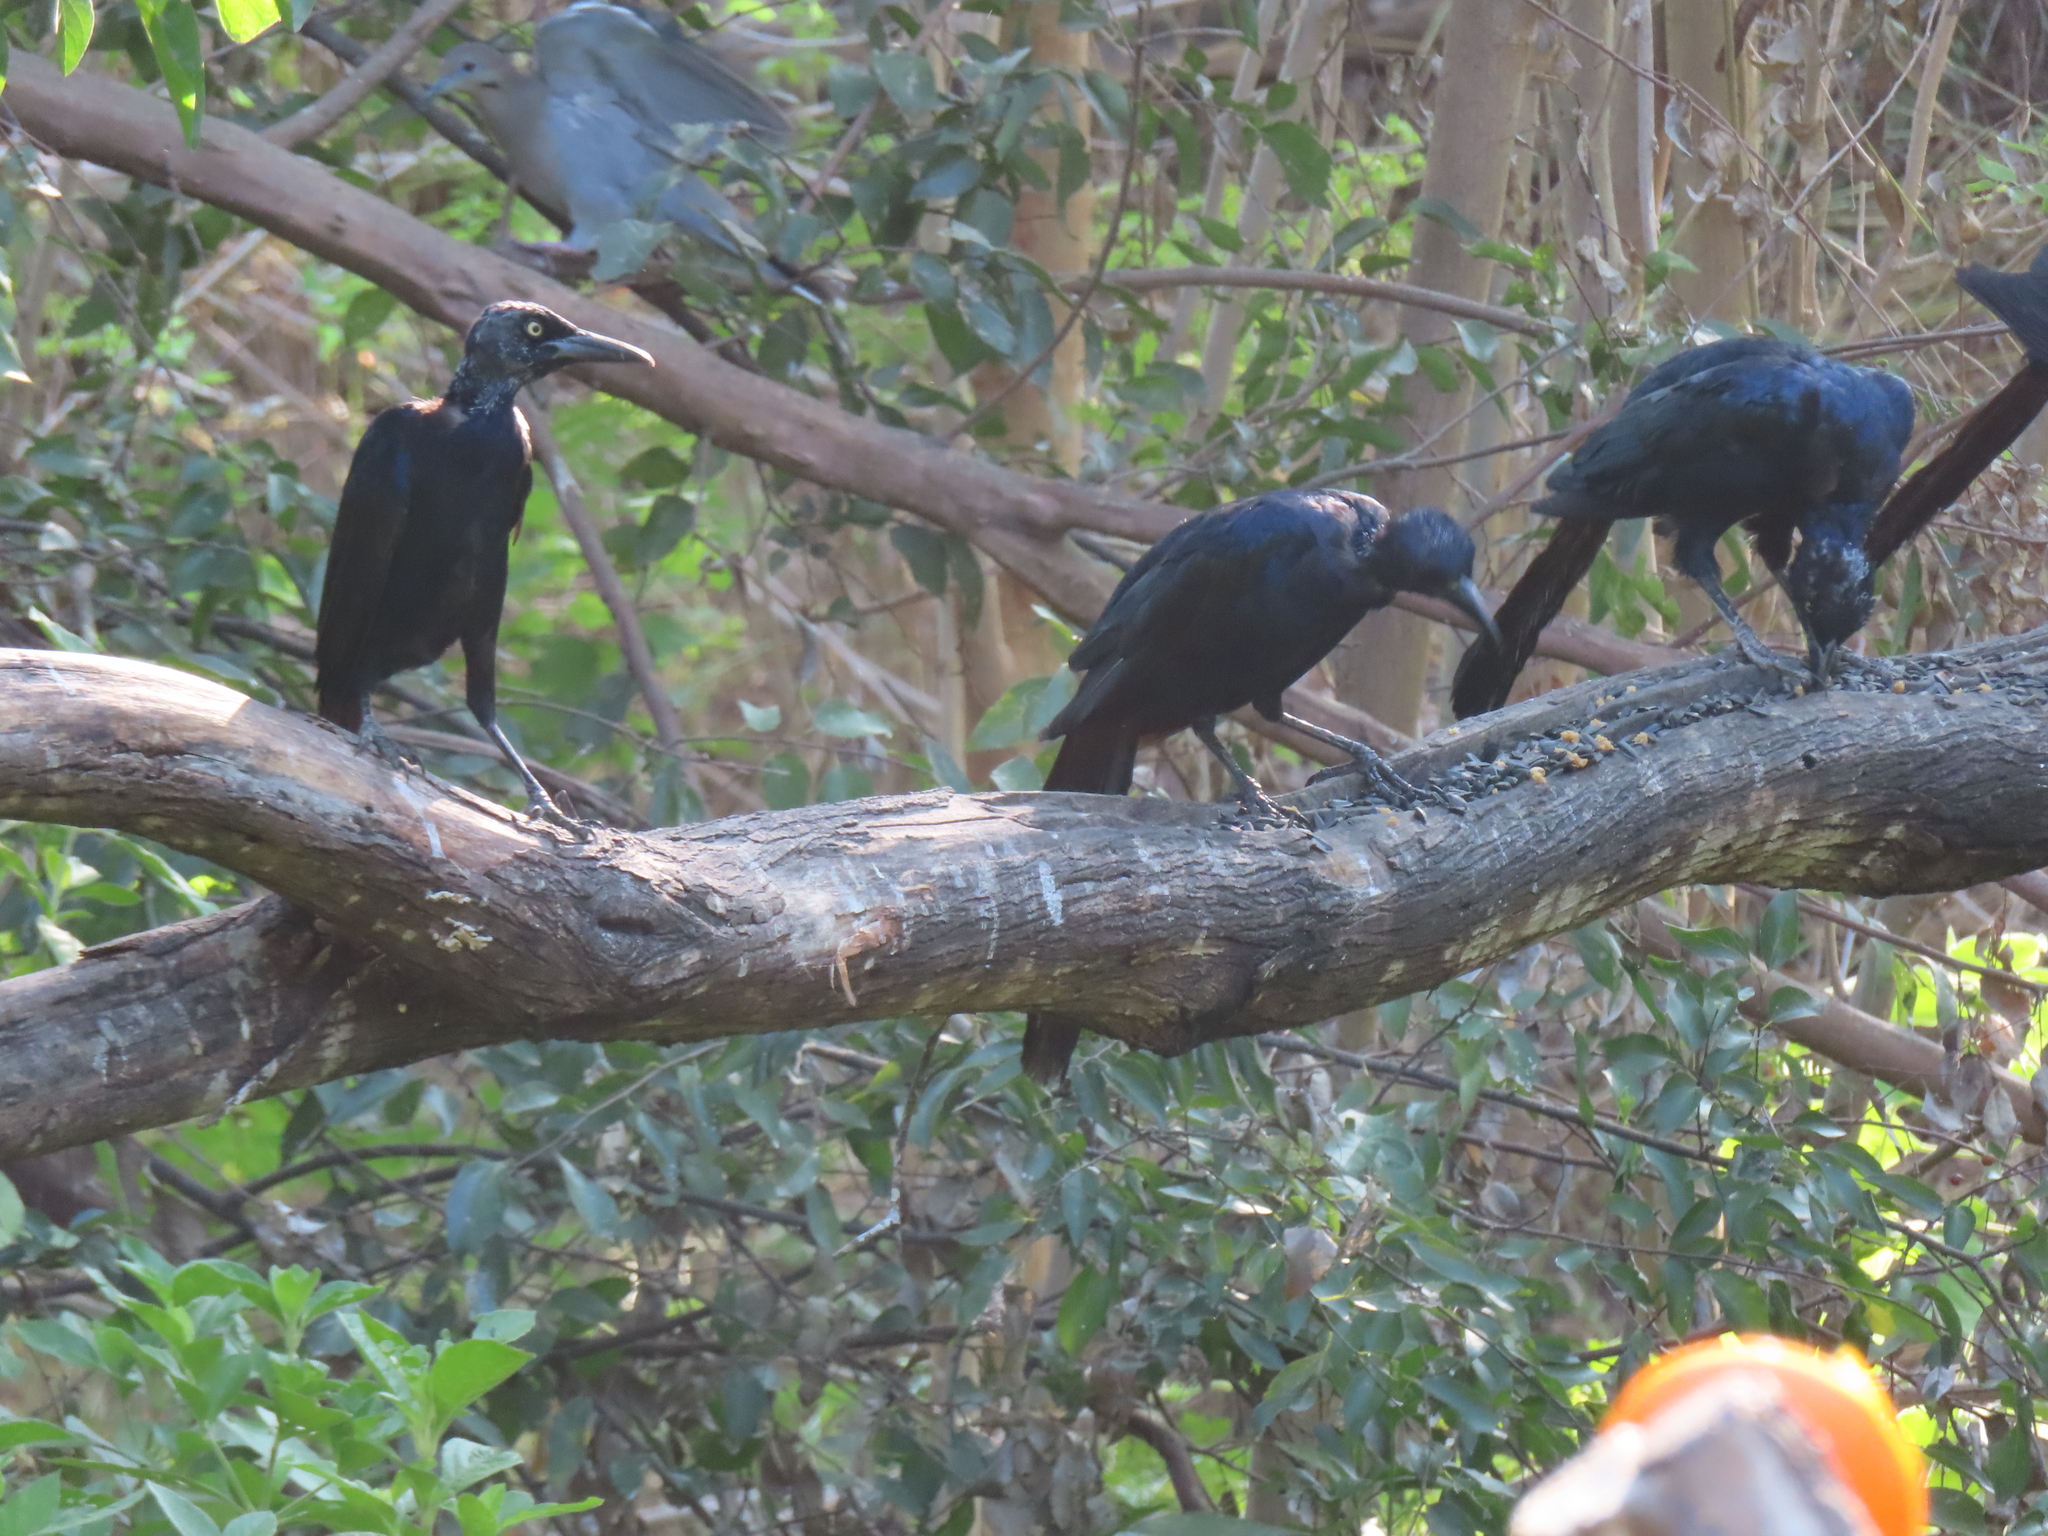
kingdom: Animalia
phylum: Chordata
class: Aves
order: Passeriformes
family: Icteridae
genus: Quiscalus
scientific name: Quiscalus mexicanus
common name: Great-tailed grackle
